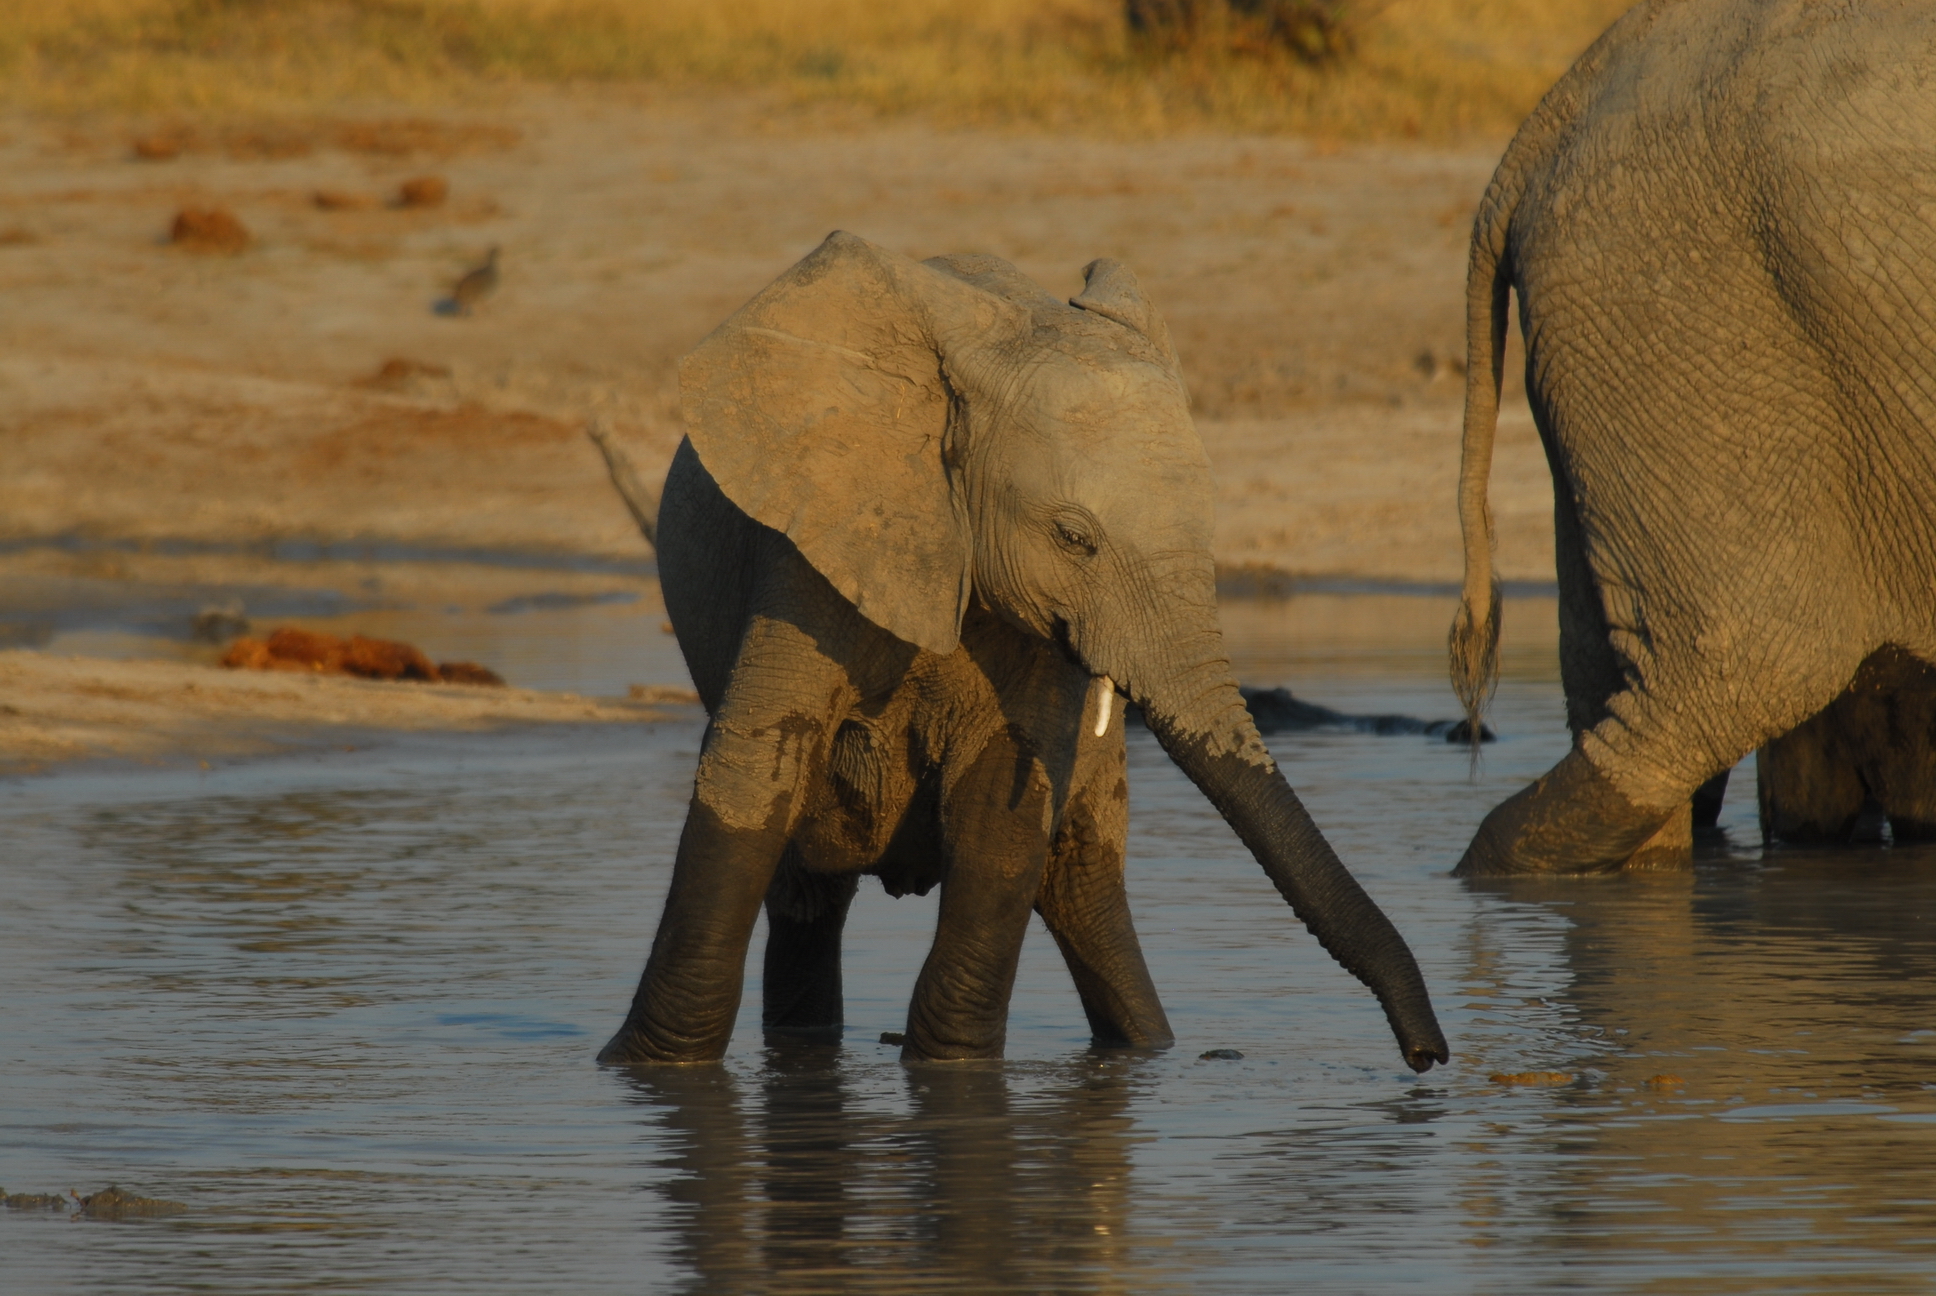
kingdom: Animalia
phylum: Chordata
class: Mammalia
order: Proboscidea
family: Elephantidae
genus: Loxodonta
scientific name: Loxodonta africana
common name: African elephant
